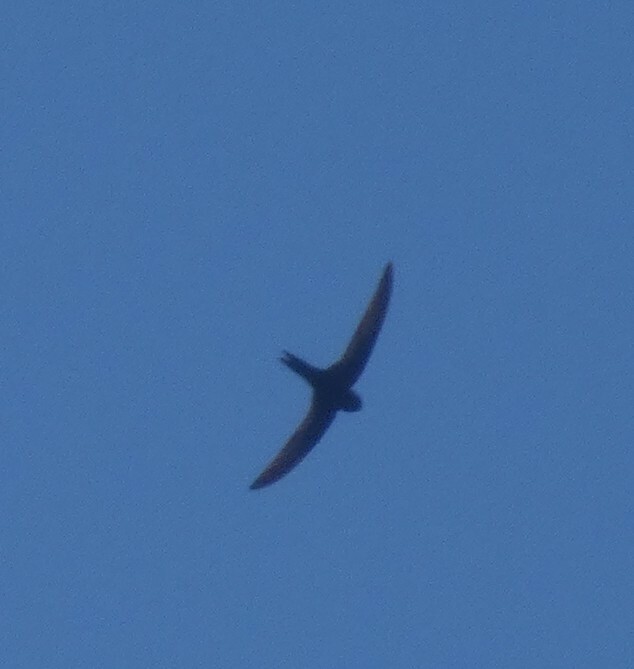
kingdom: Animalia
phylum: Chordata
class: Aves
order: Apodiformes
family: Apodidae
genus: Apus
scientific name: Apus apus
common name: Common swift
